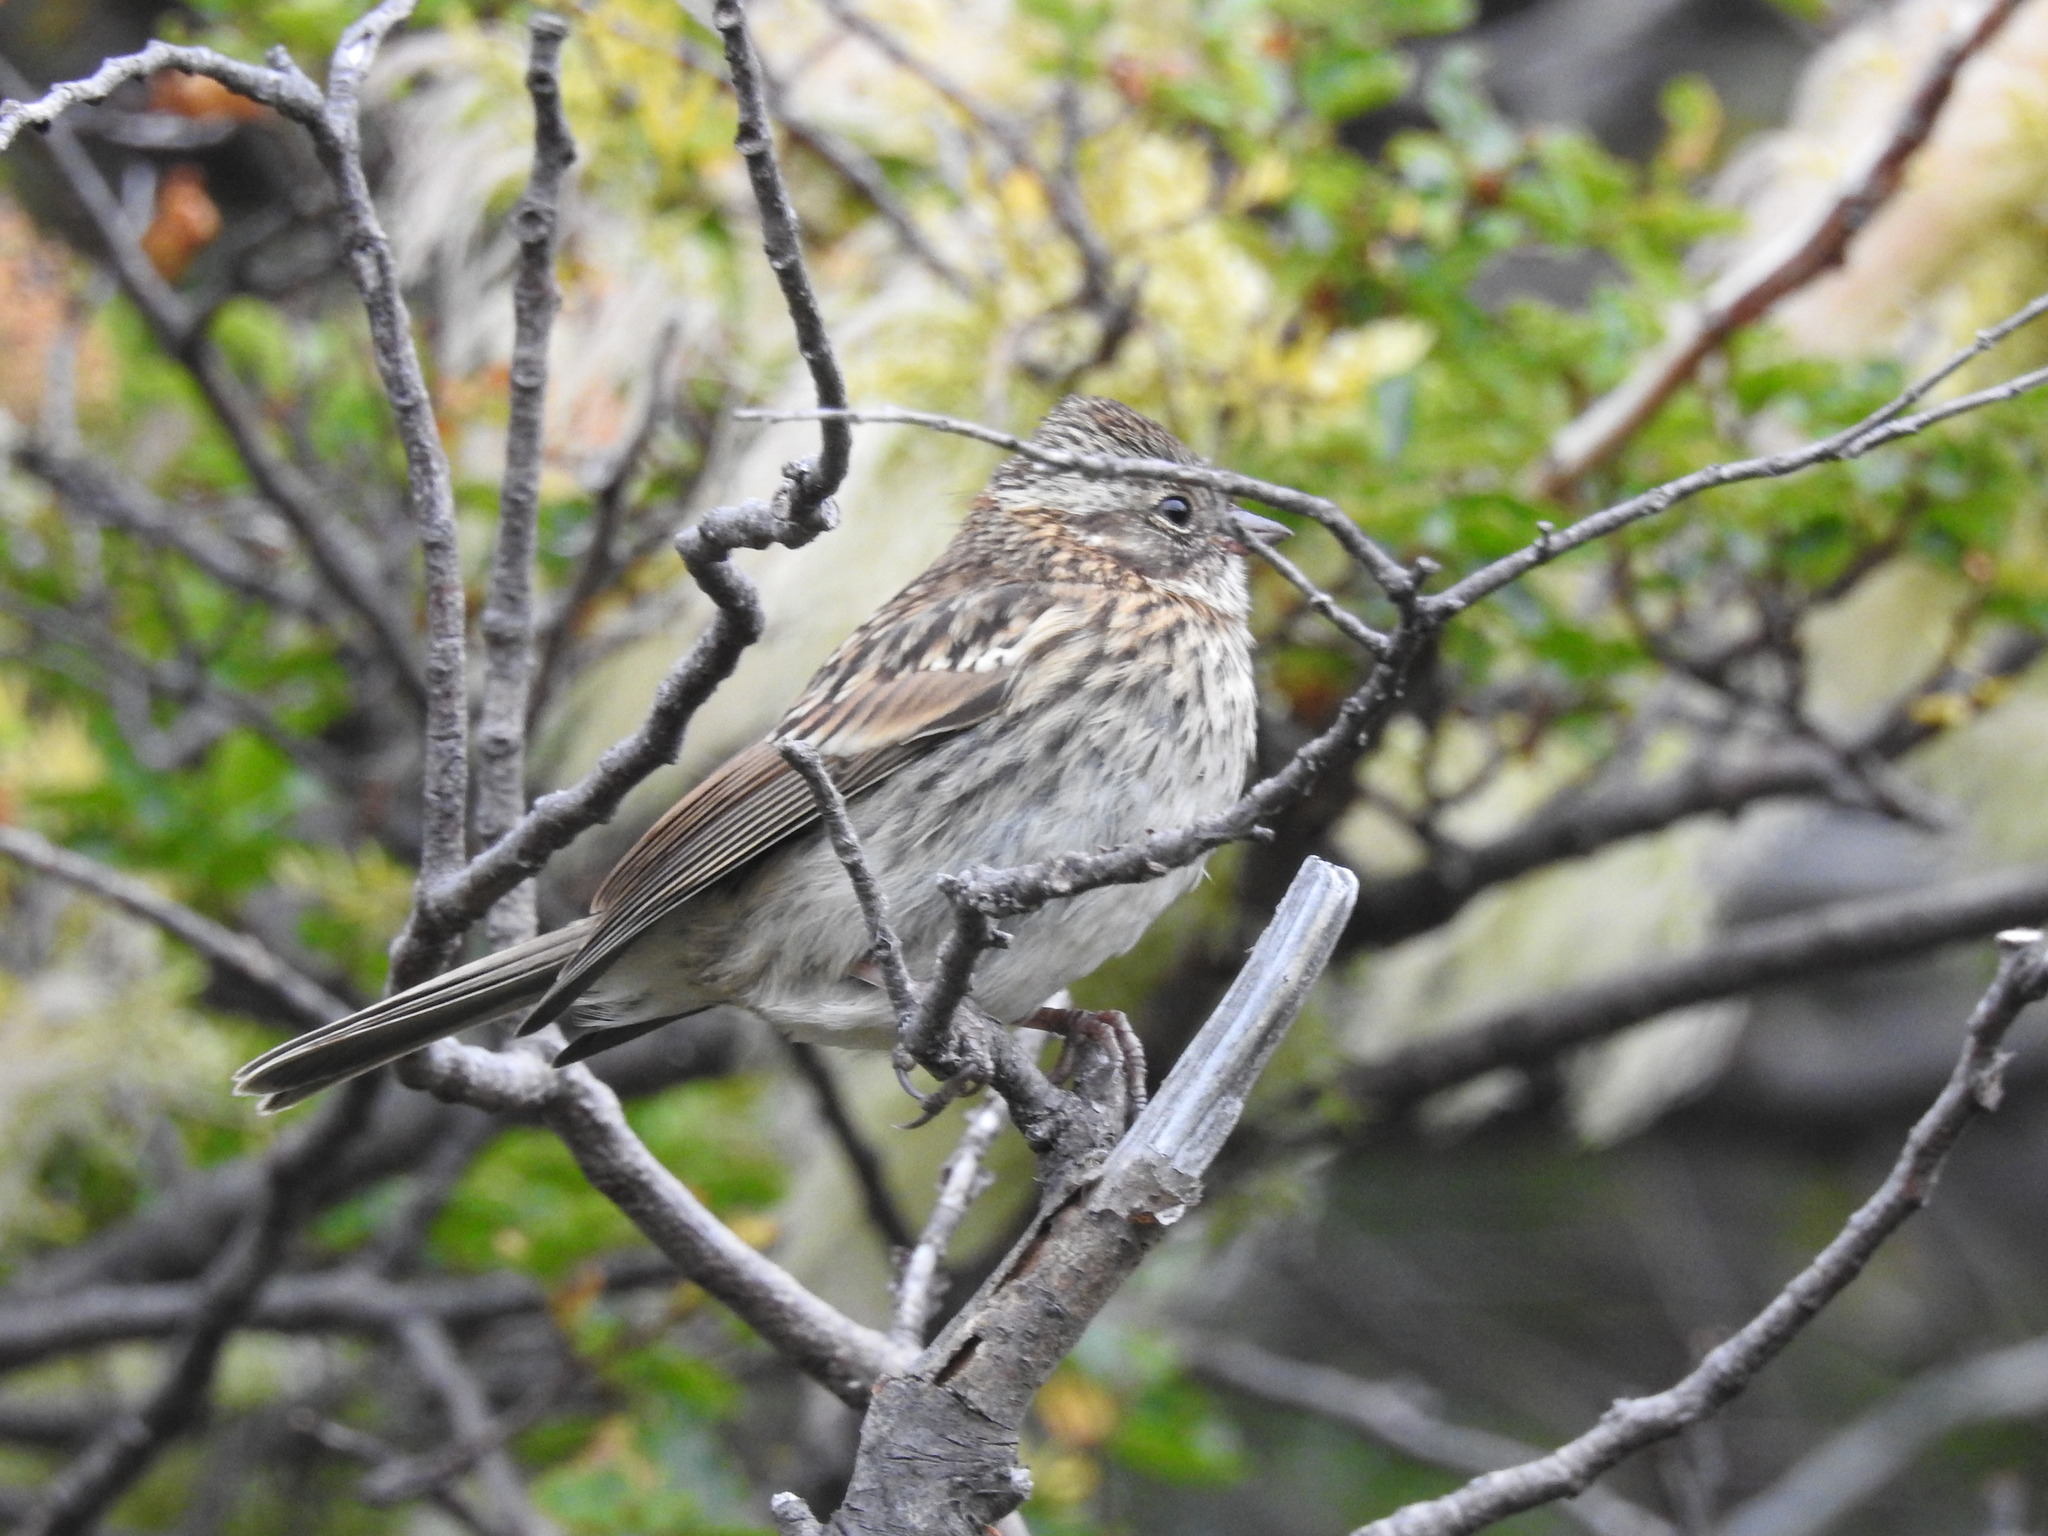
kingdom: Animalia
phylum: Chordata
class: Aves
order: Passeriformes
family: Passerellidae
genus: Zonotrichia
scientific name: Zonotrichia capensis
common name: Rufous-collared sparrow
